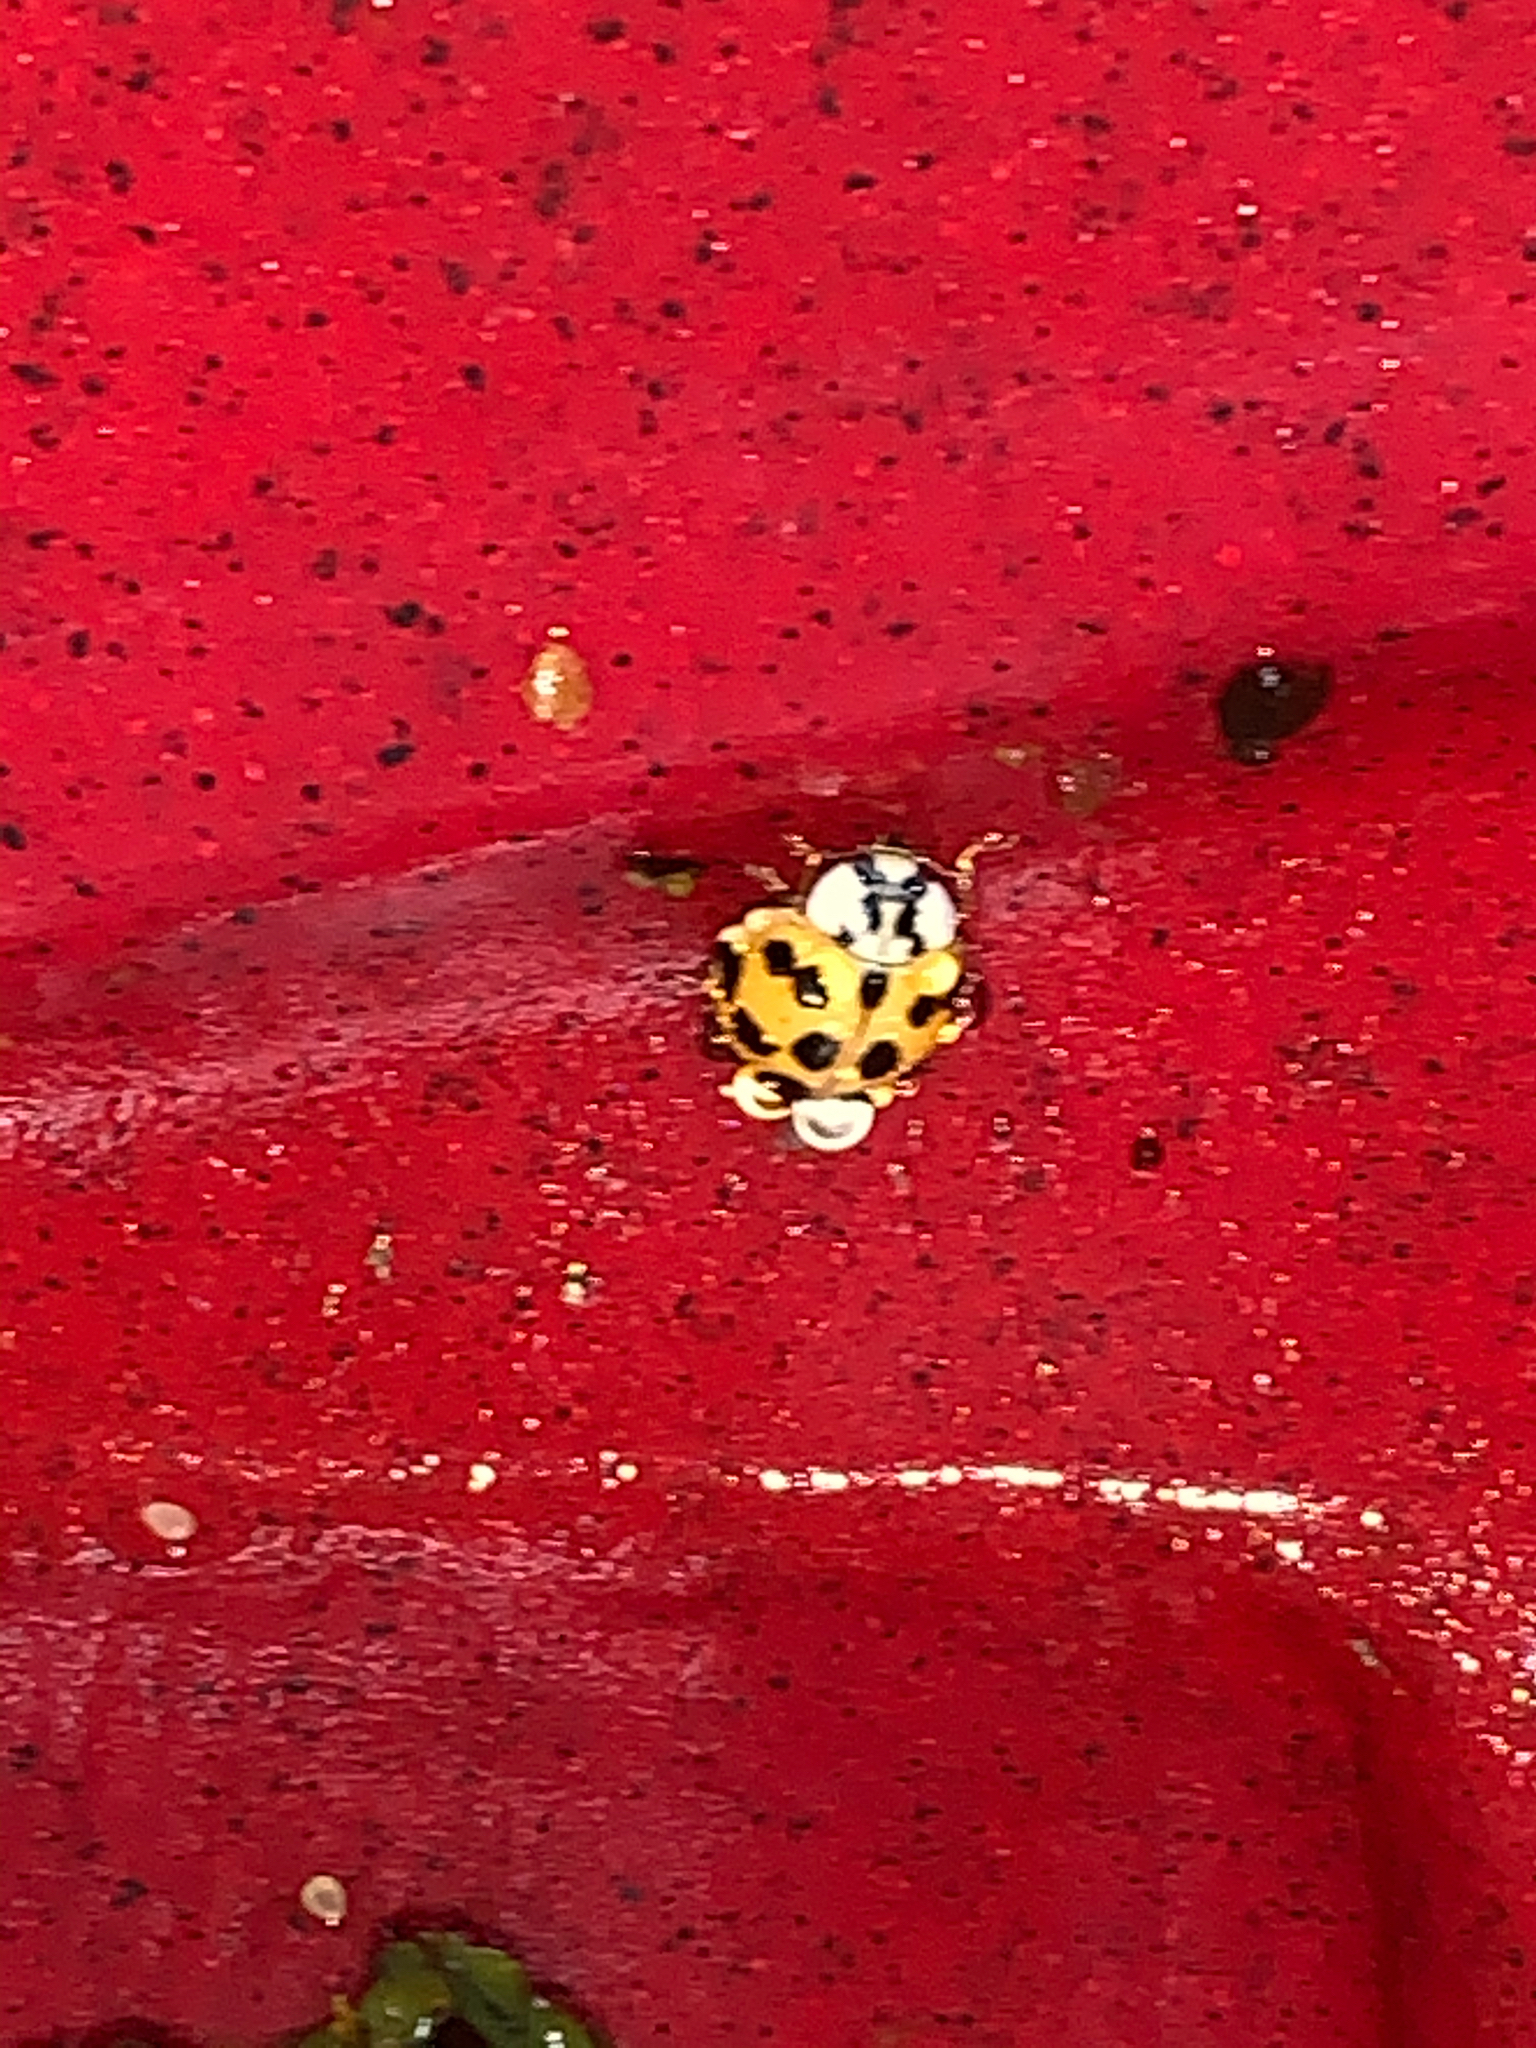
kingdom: Animalia
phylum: Arthropoda
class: Insecta
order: Coleoptera
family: Coccinellidae
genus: Harmonia
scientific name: Harmonia axyridis
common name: Harlequin ladybird
